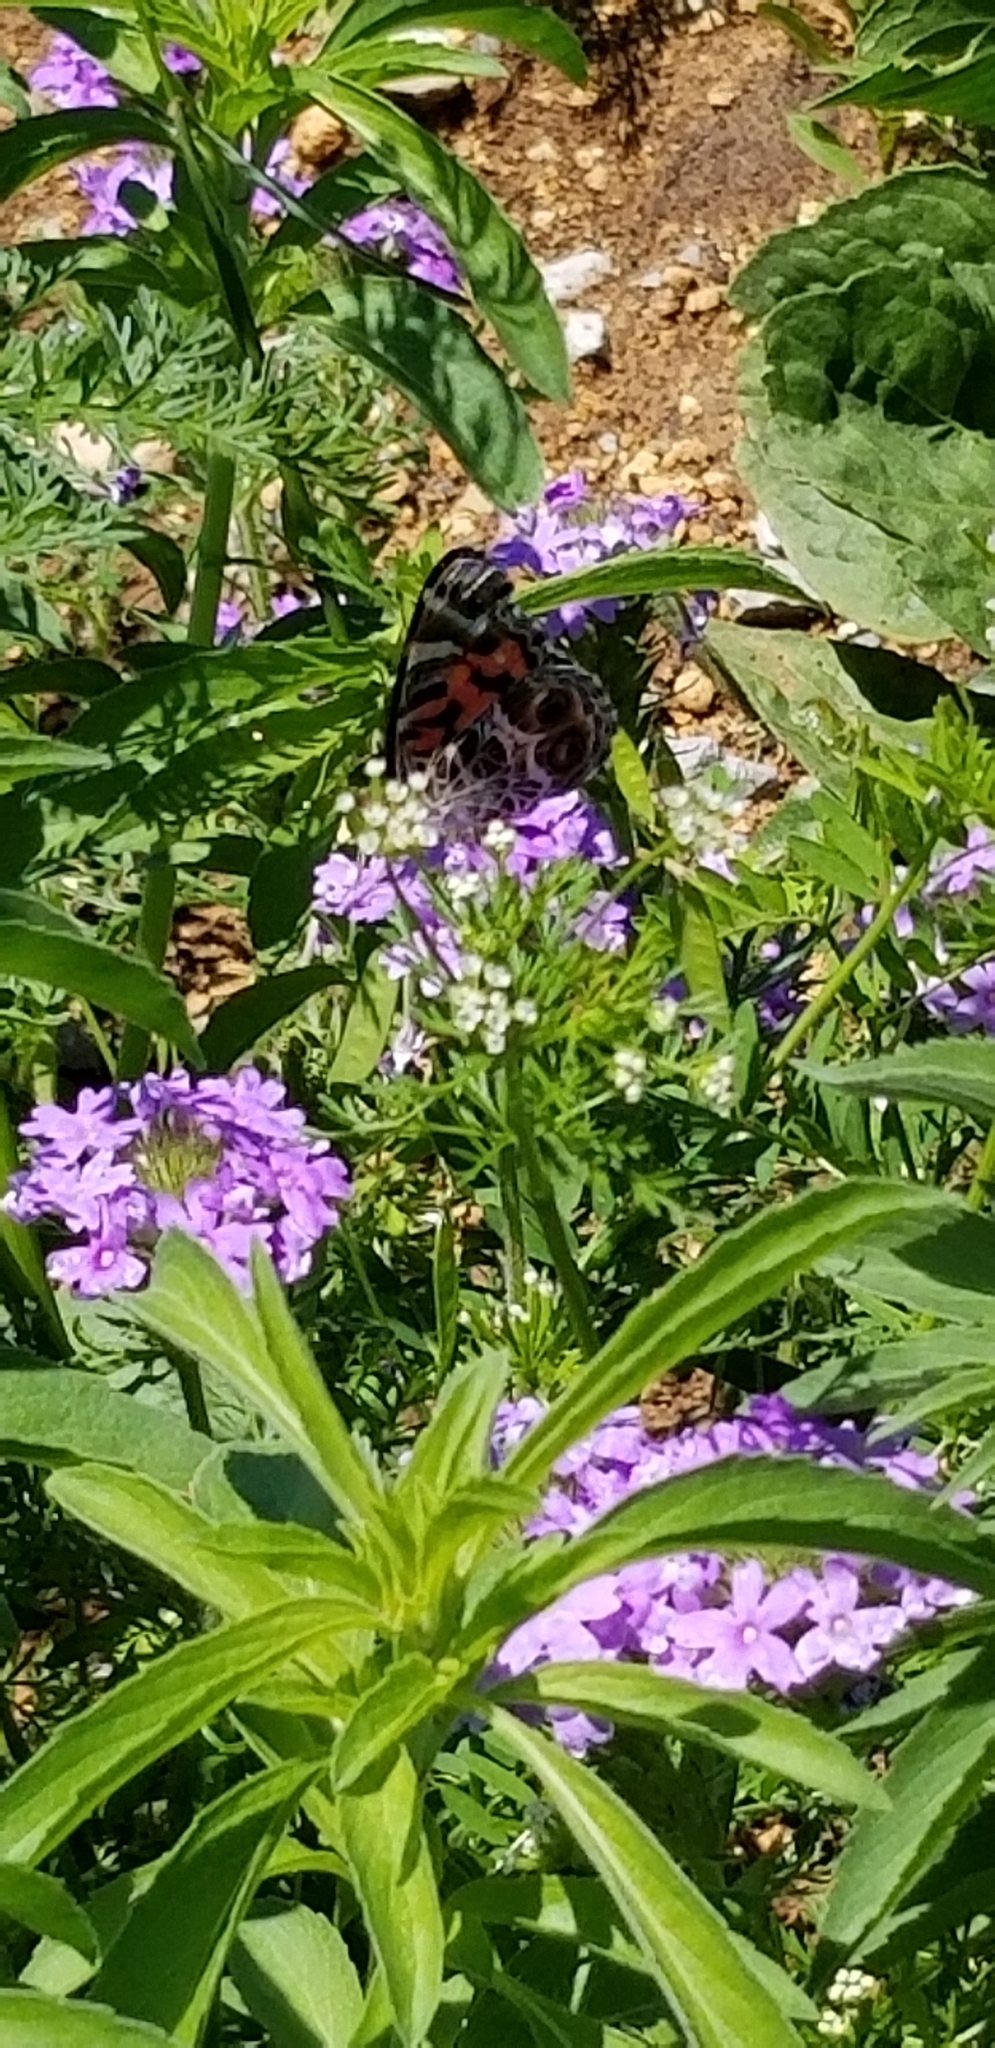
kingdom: Animalia
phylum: Arthropoda
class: Insecta
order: Lepidoptera
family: Nymphalidae
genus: Vanessa
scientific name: Vanessa virginiensis
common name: American lady
